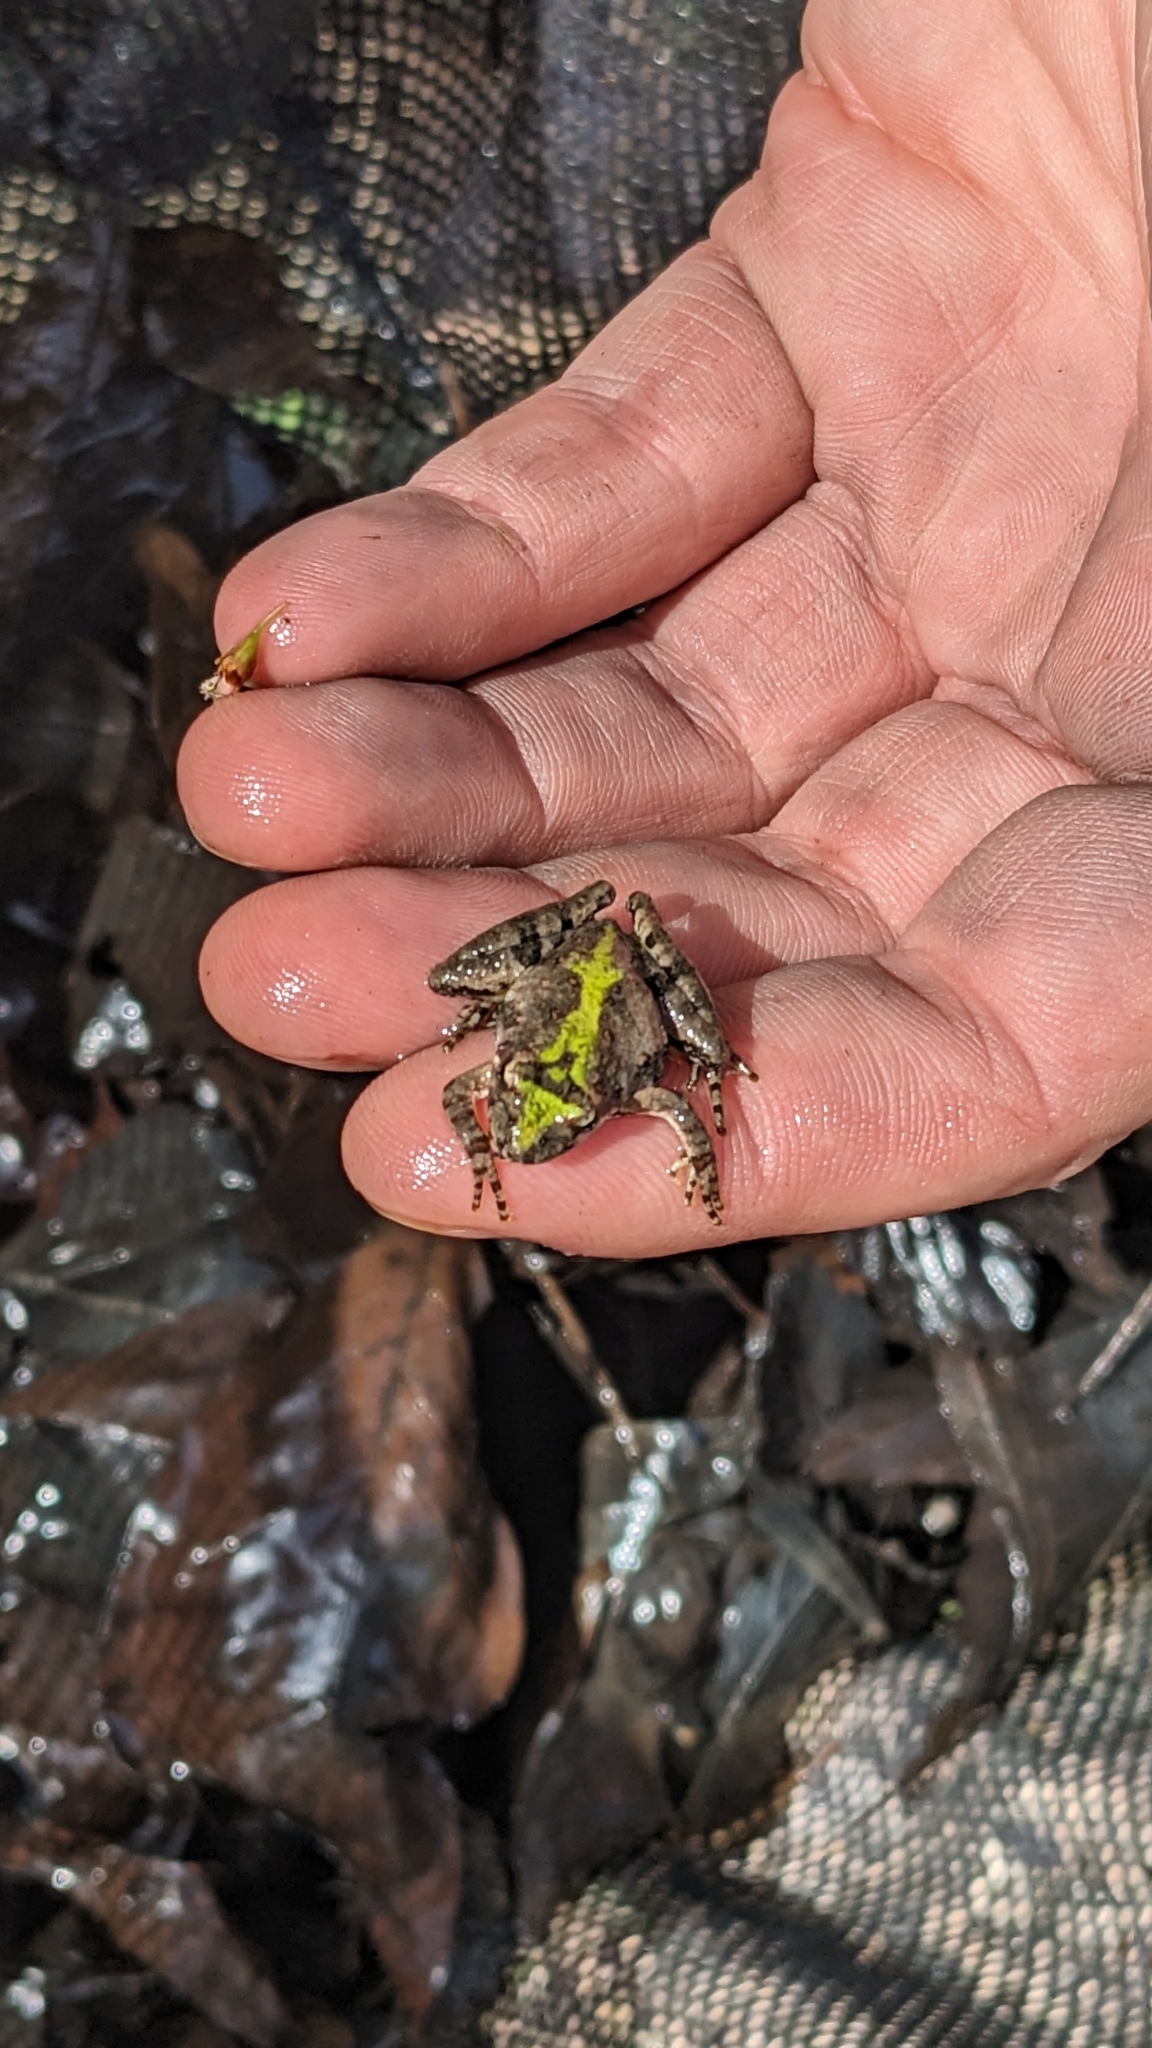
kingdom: Animalia
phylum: Chordata
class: Amphibia
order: Anura
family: Hylidae
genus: Acris
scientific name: Acris crepitans
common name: Northern cricket frog
